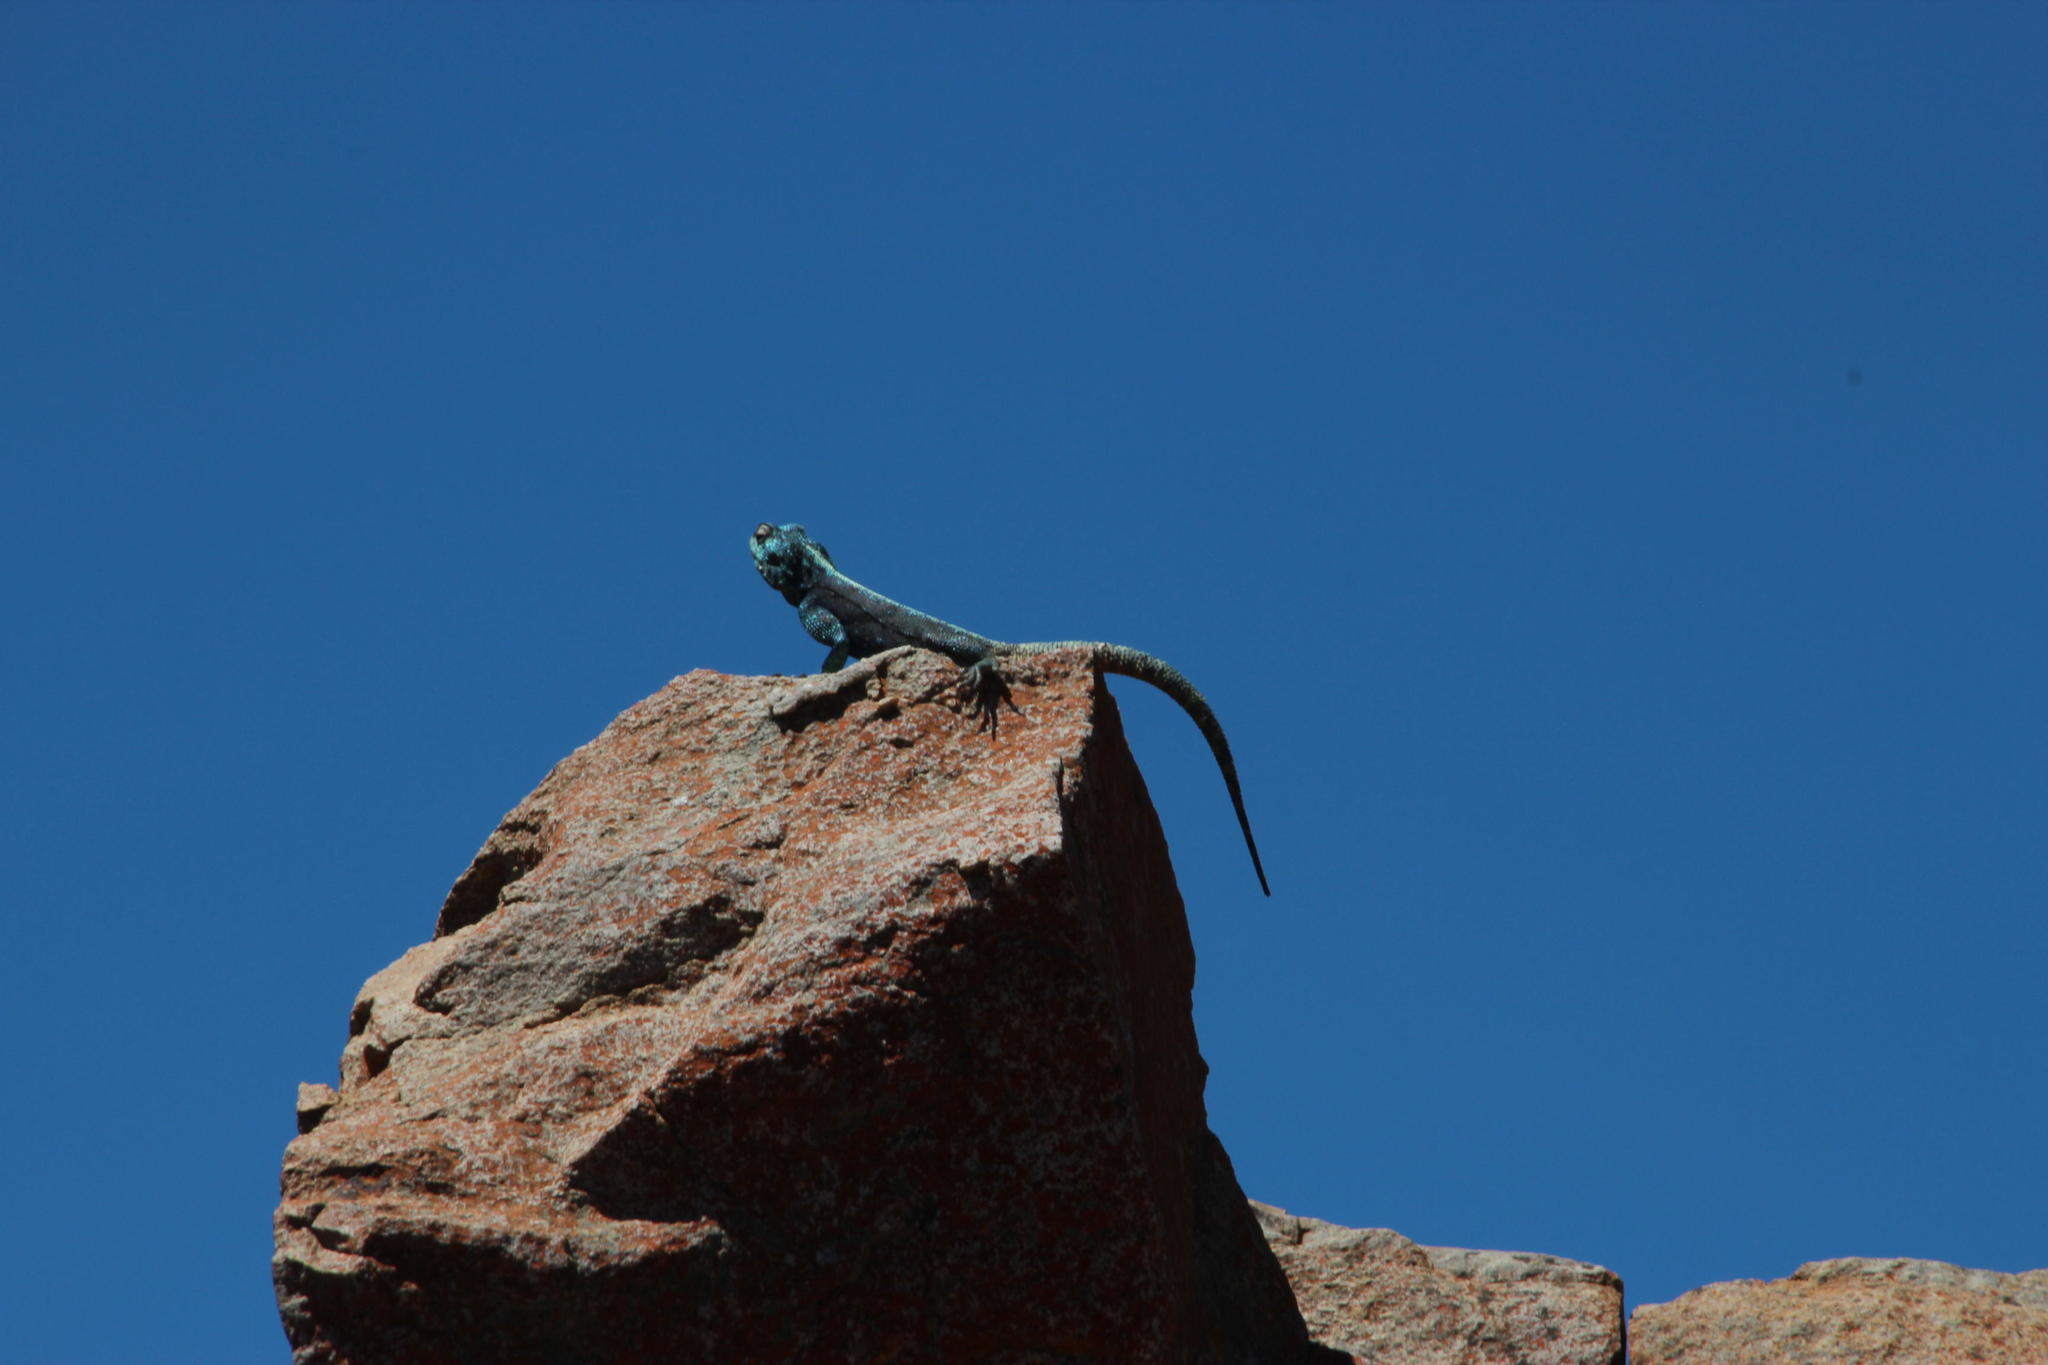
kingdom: Animalia
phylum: Chordata
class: Squamata
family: Agamidae
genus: Agama
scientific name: Agama atra
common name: Southern african rock agama
